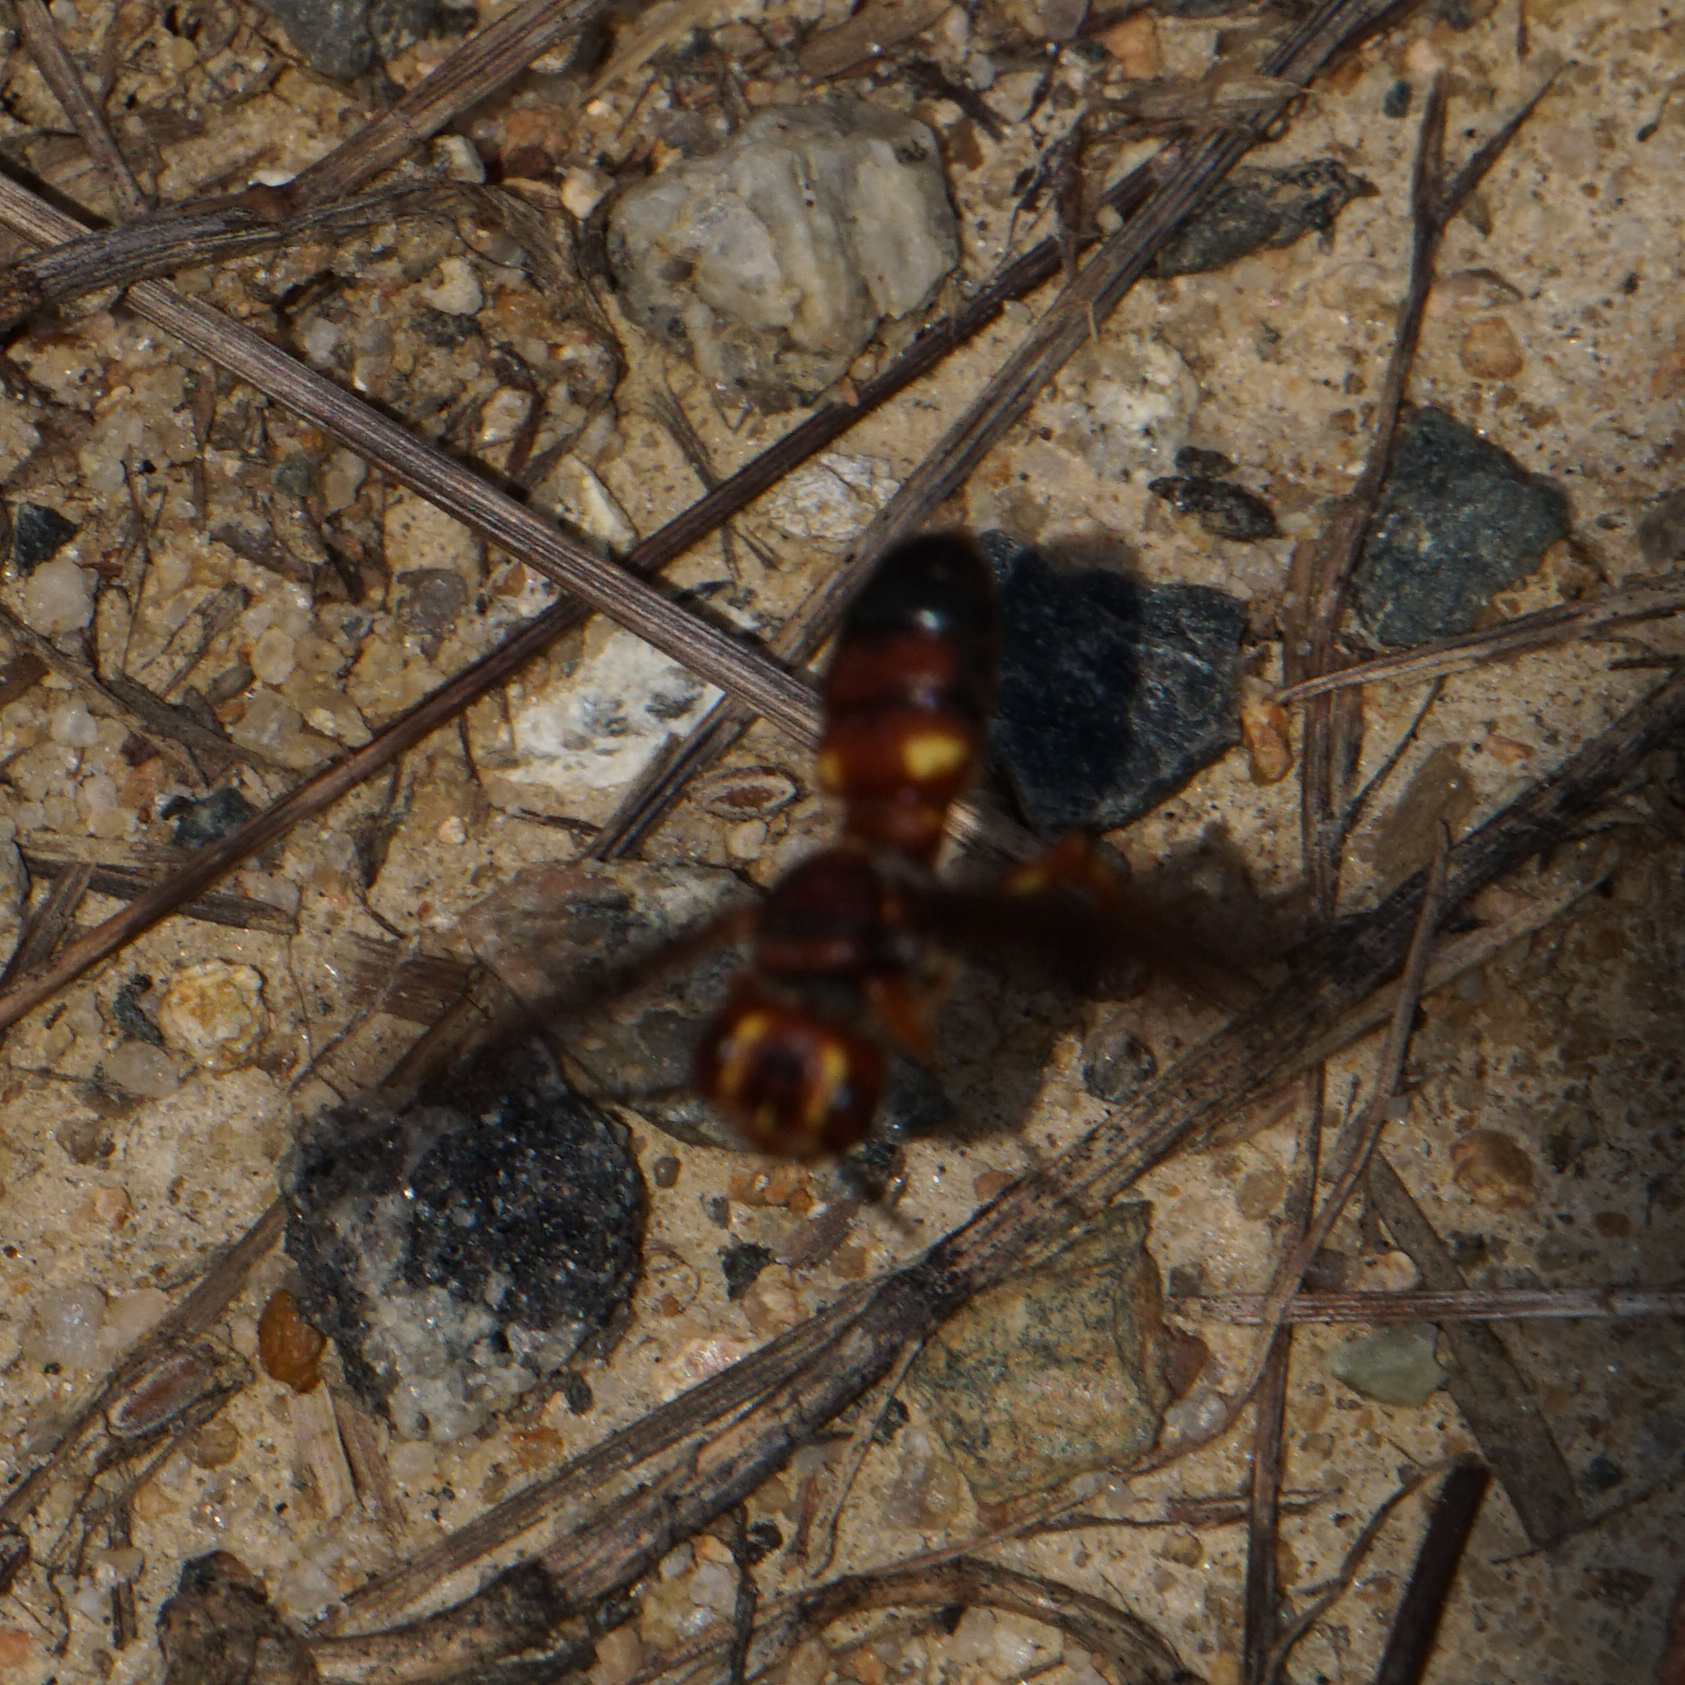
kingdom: Animalia
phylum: Arthropoda
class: Insecta
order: Hymenoptera
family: Crabronidae
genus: Cerceris
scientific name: Cerceris bicornuta
